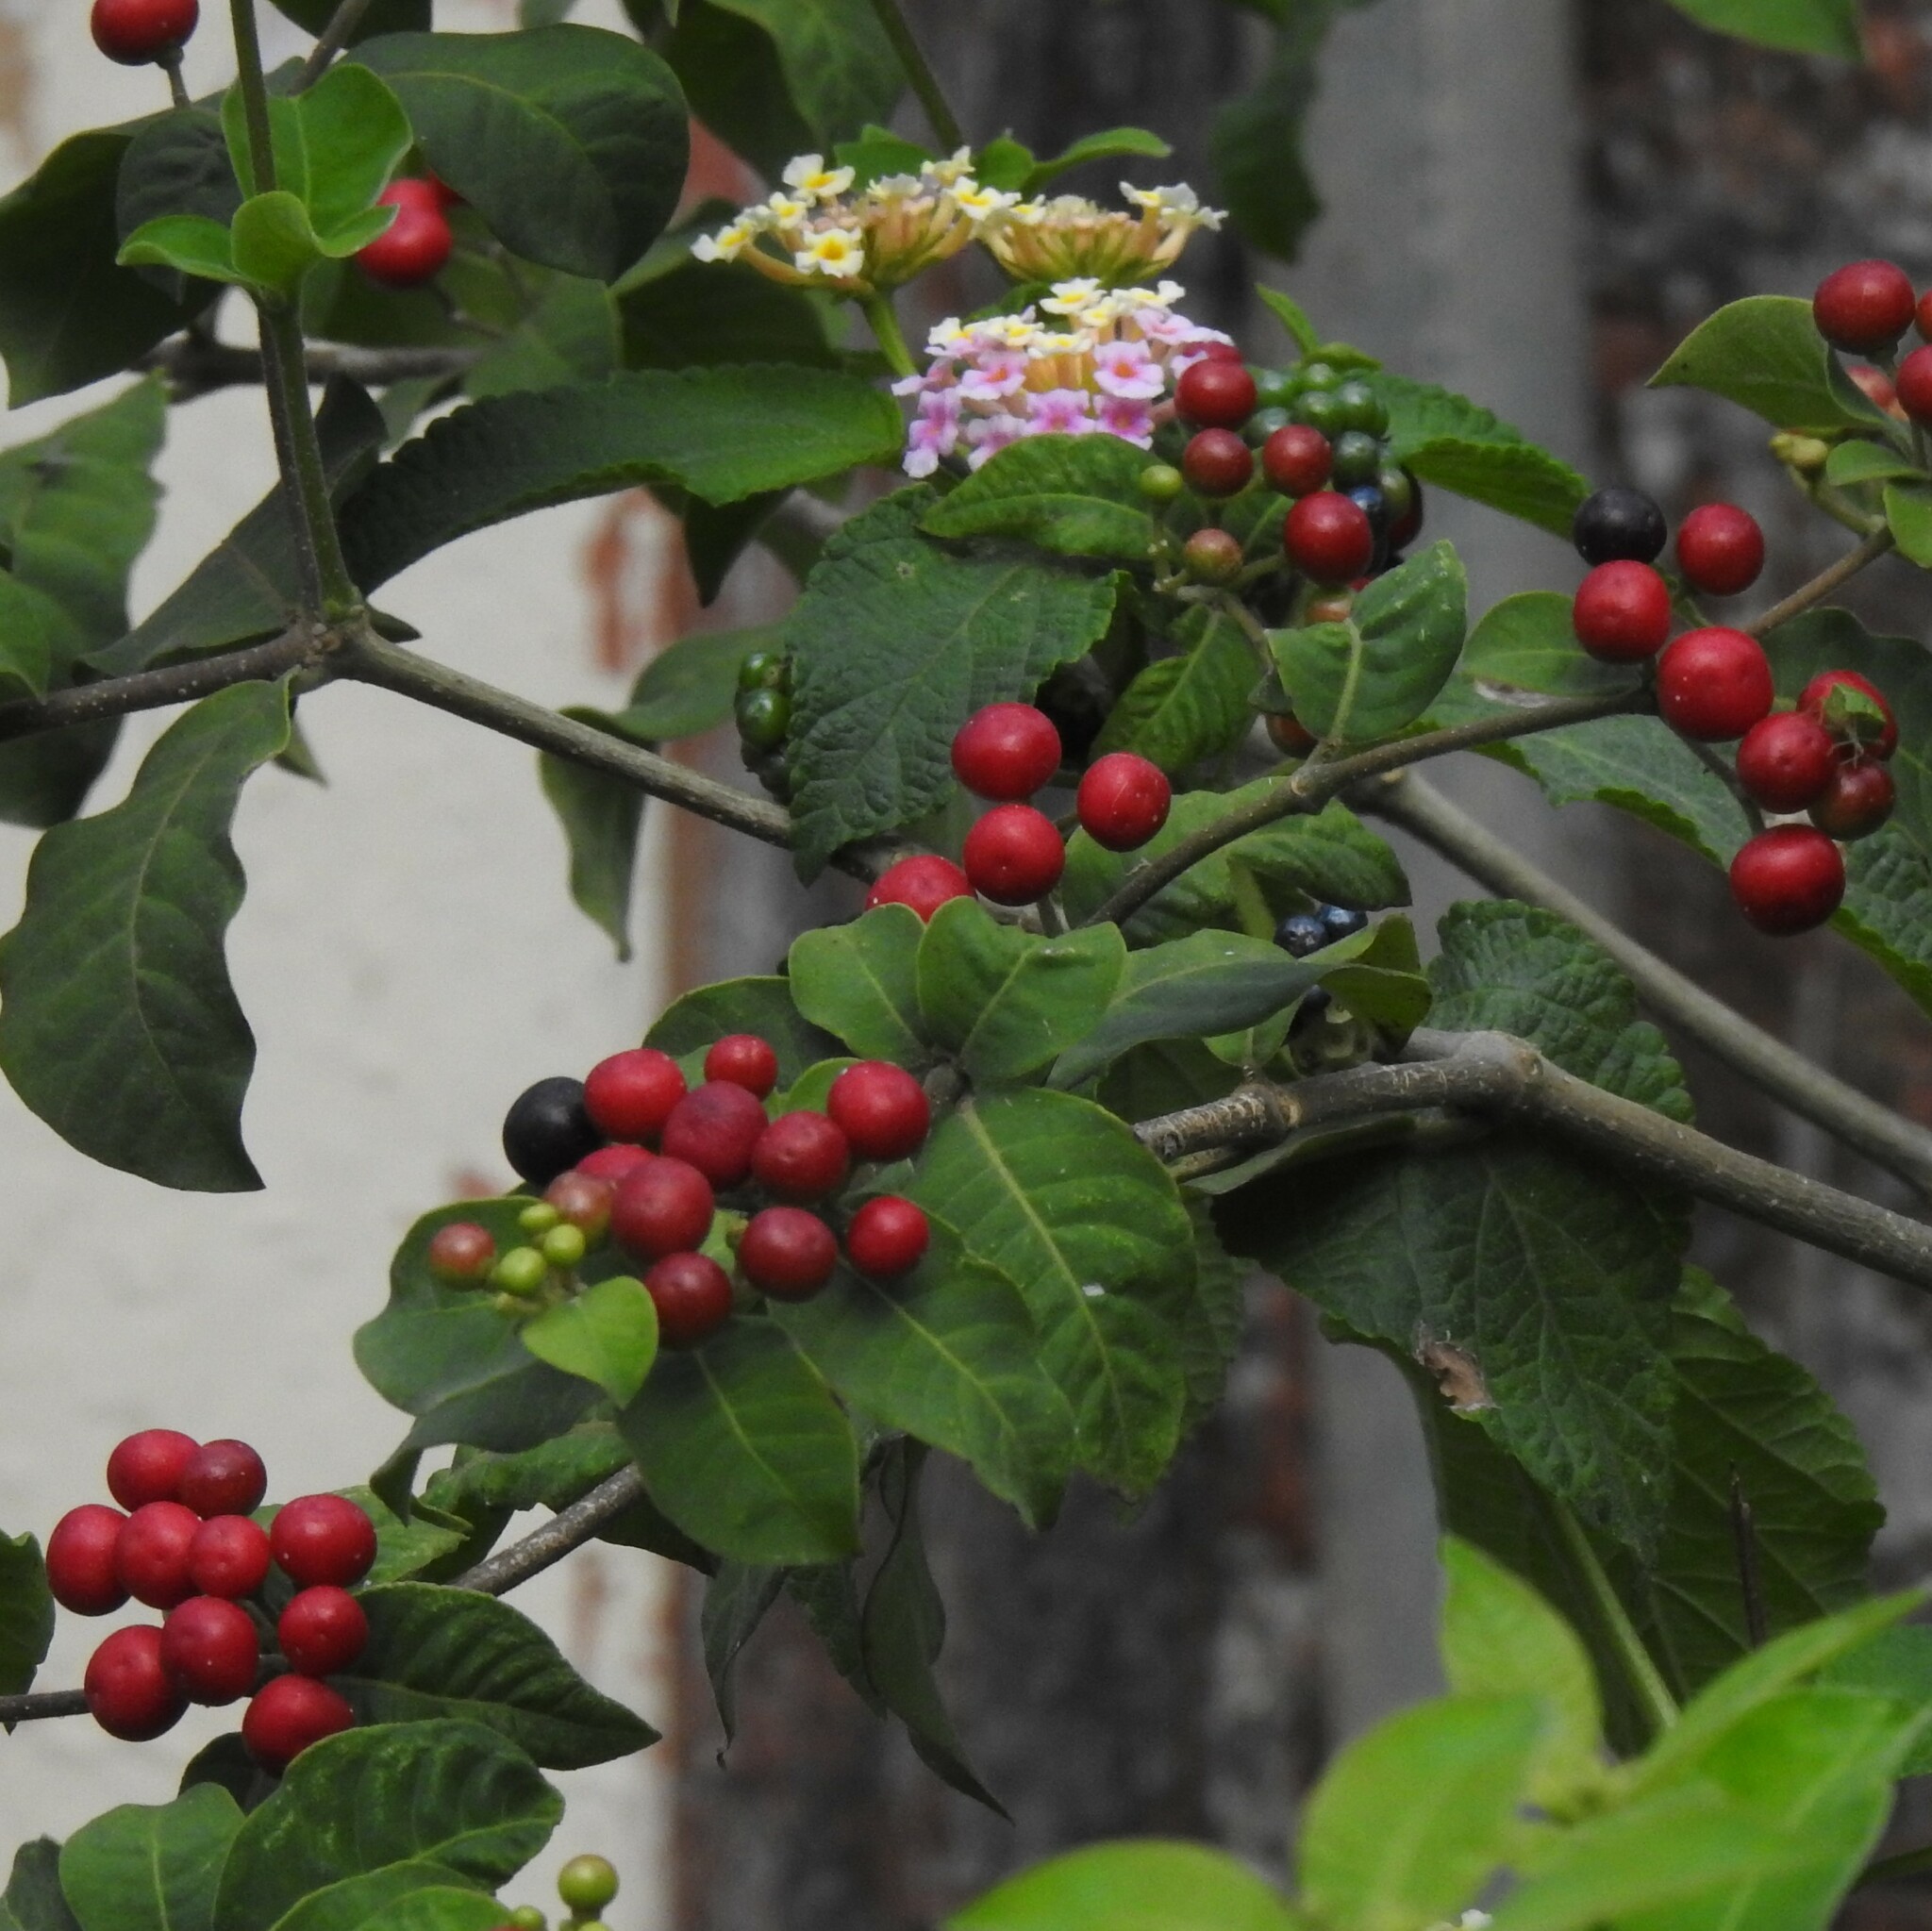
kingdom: Plantae
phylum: Tracheophyta
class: Magnoliopsida
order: Gentianales
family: Apocynaceae
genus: Rauvolfia
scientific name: Rauvolfia tetraphylla
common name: Four-leaf devil-pepper
